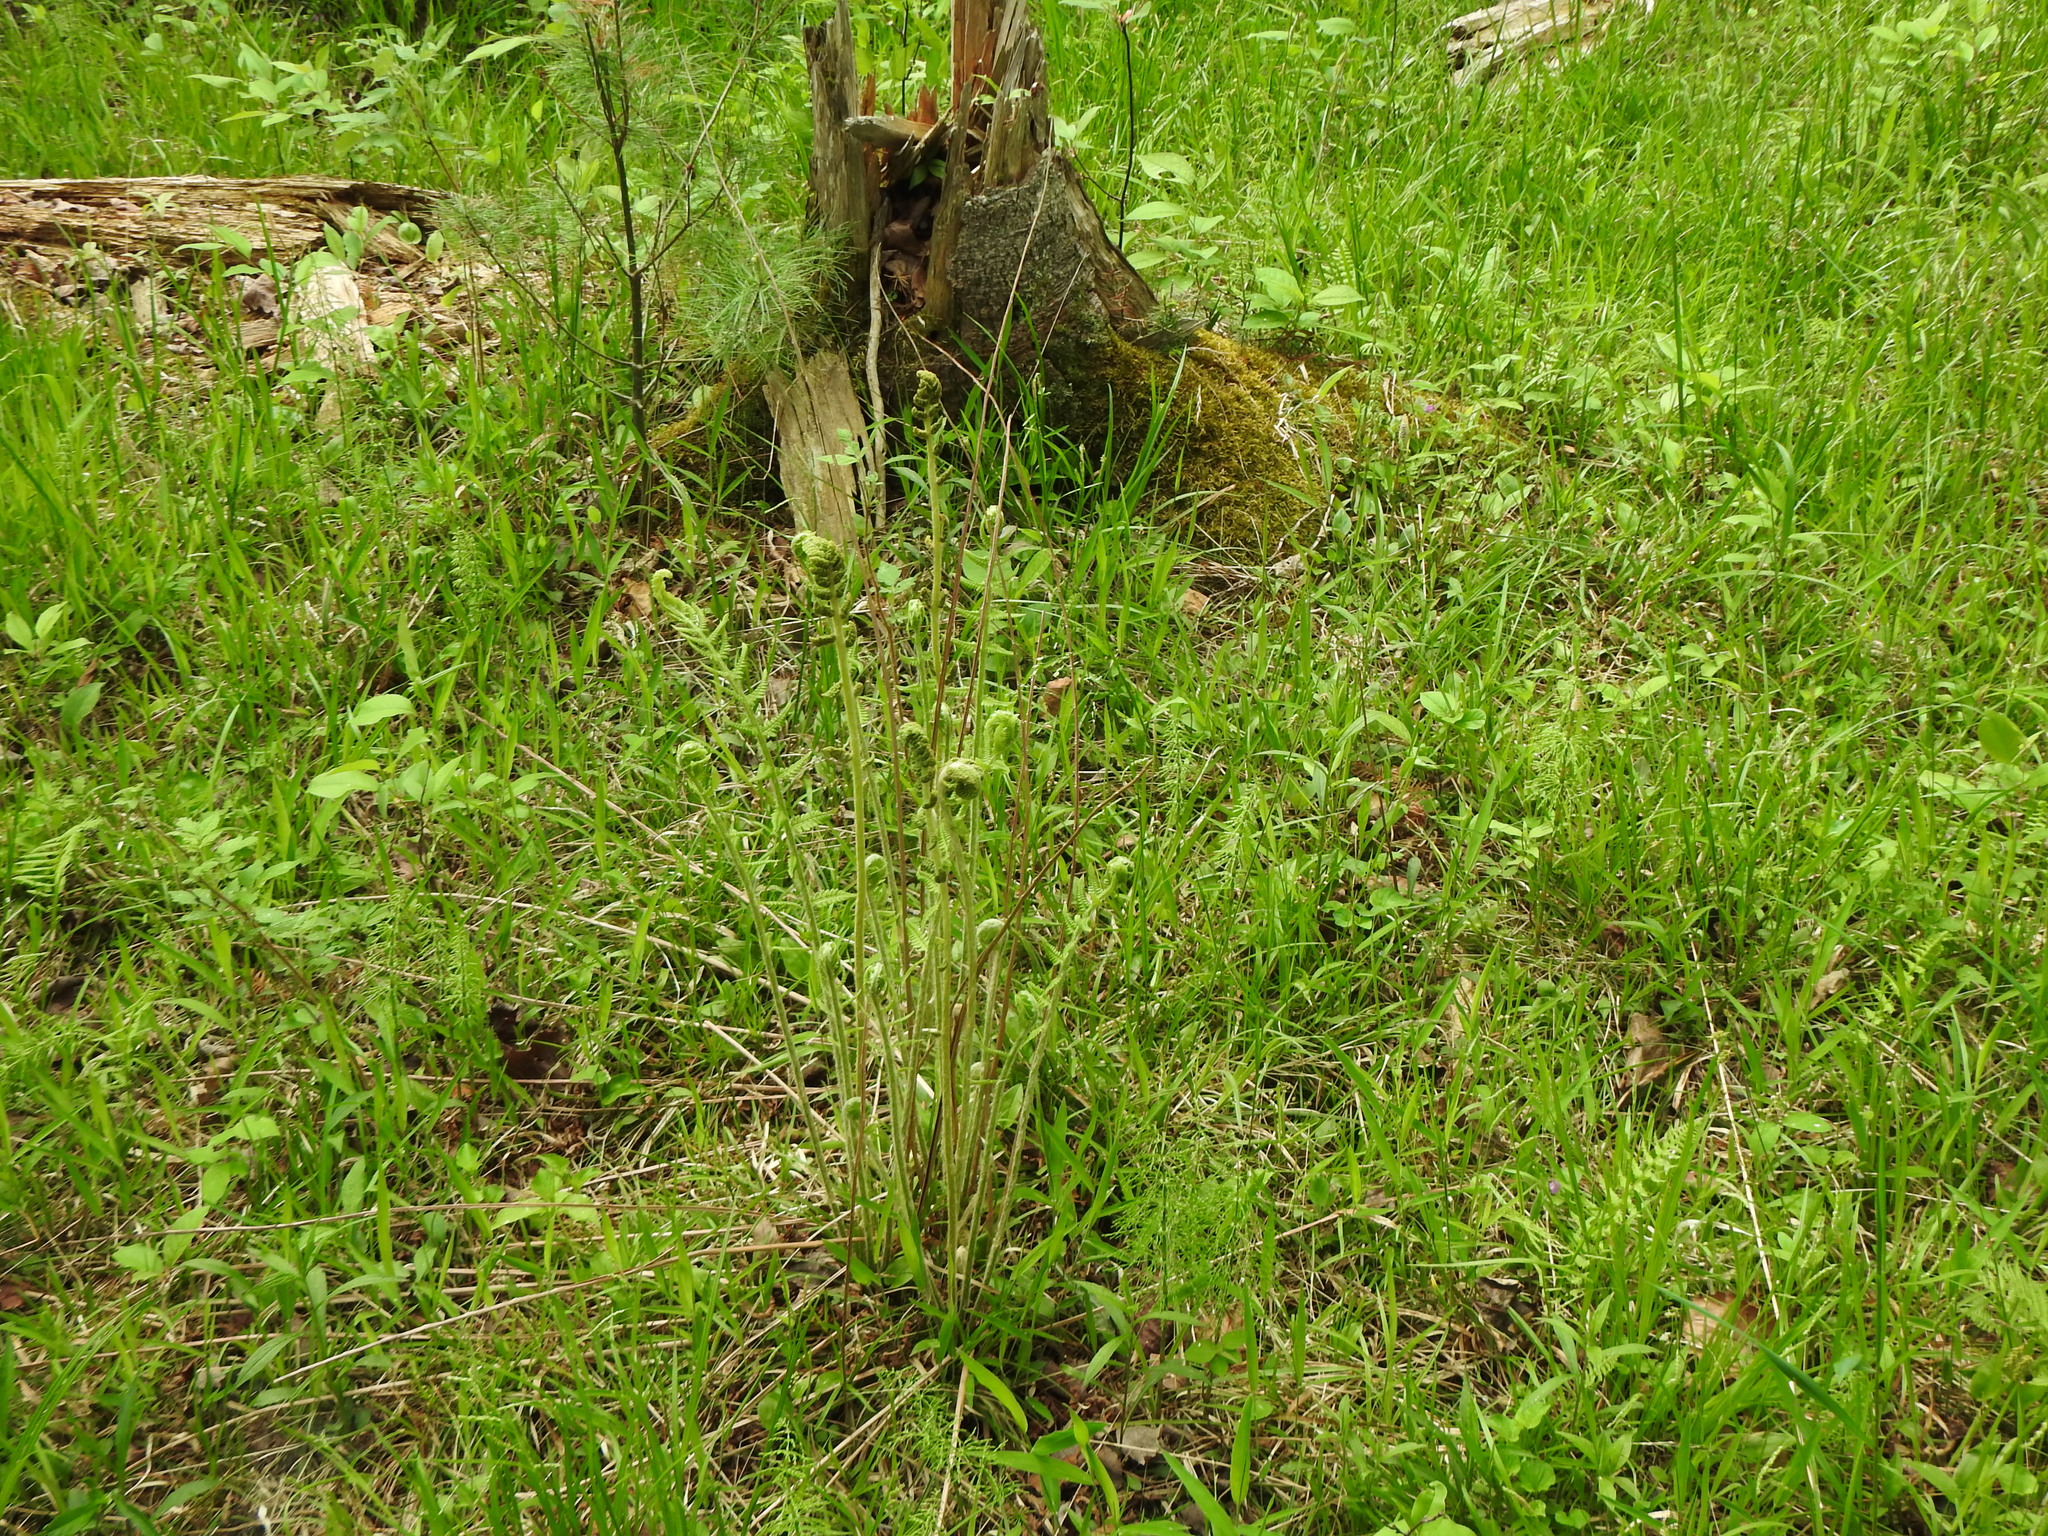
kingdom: Plantae
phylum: Tracheophyta
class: Polypodiopsida
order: Osmundales
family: Osmundaceae
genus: Osmundastrum
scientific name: Osmundastrum cinnamomeum
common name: Cinnamon fern
